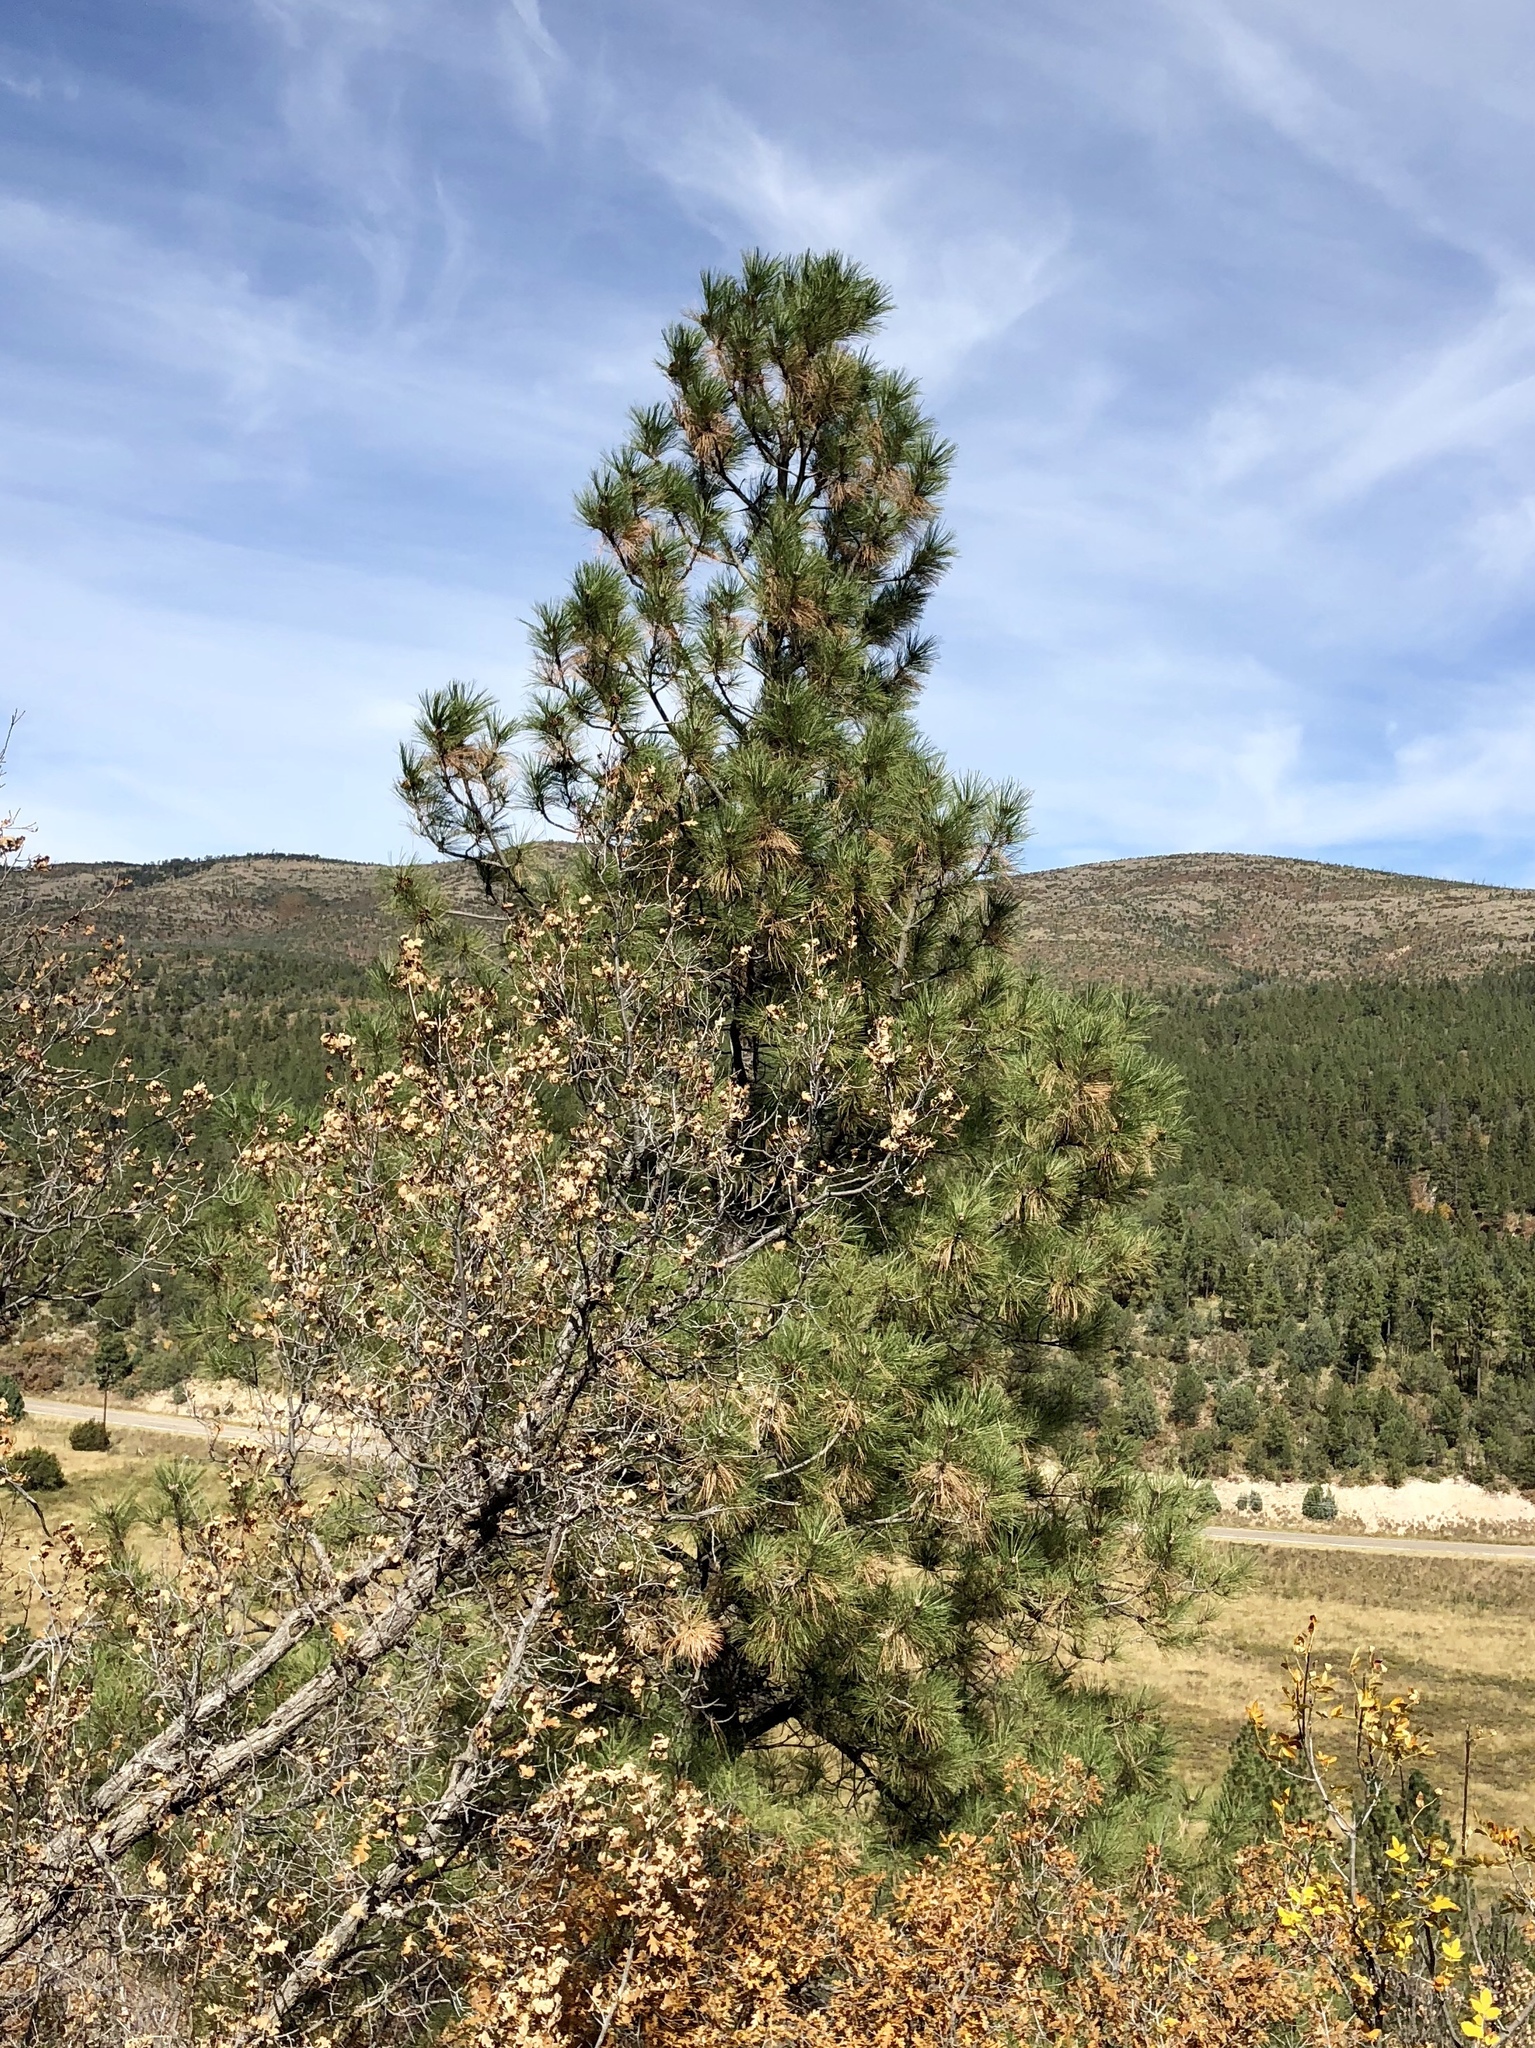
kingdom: Plantae
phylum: Tracheophyta
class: Pinopsida
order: Pinales
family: Pinaceae
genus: Pinus
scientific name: Pinus ponderosa
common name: Western yellow-pine
